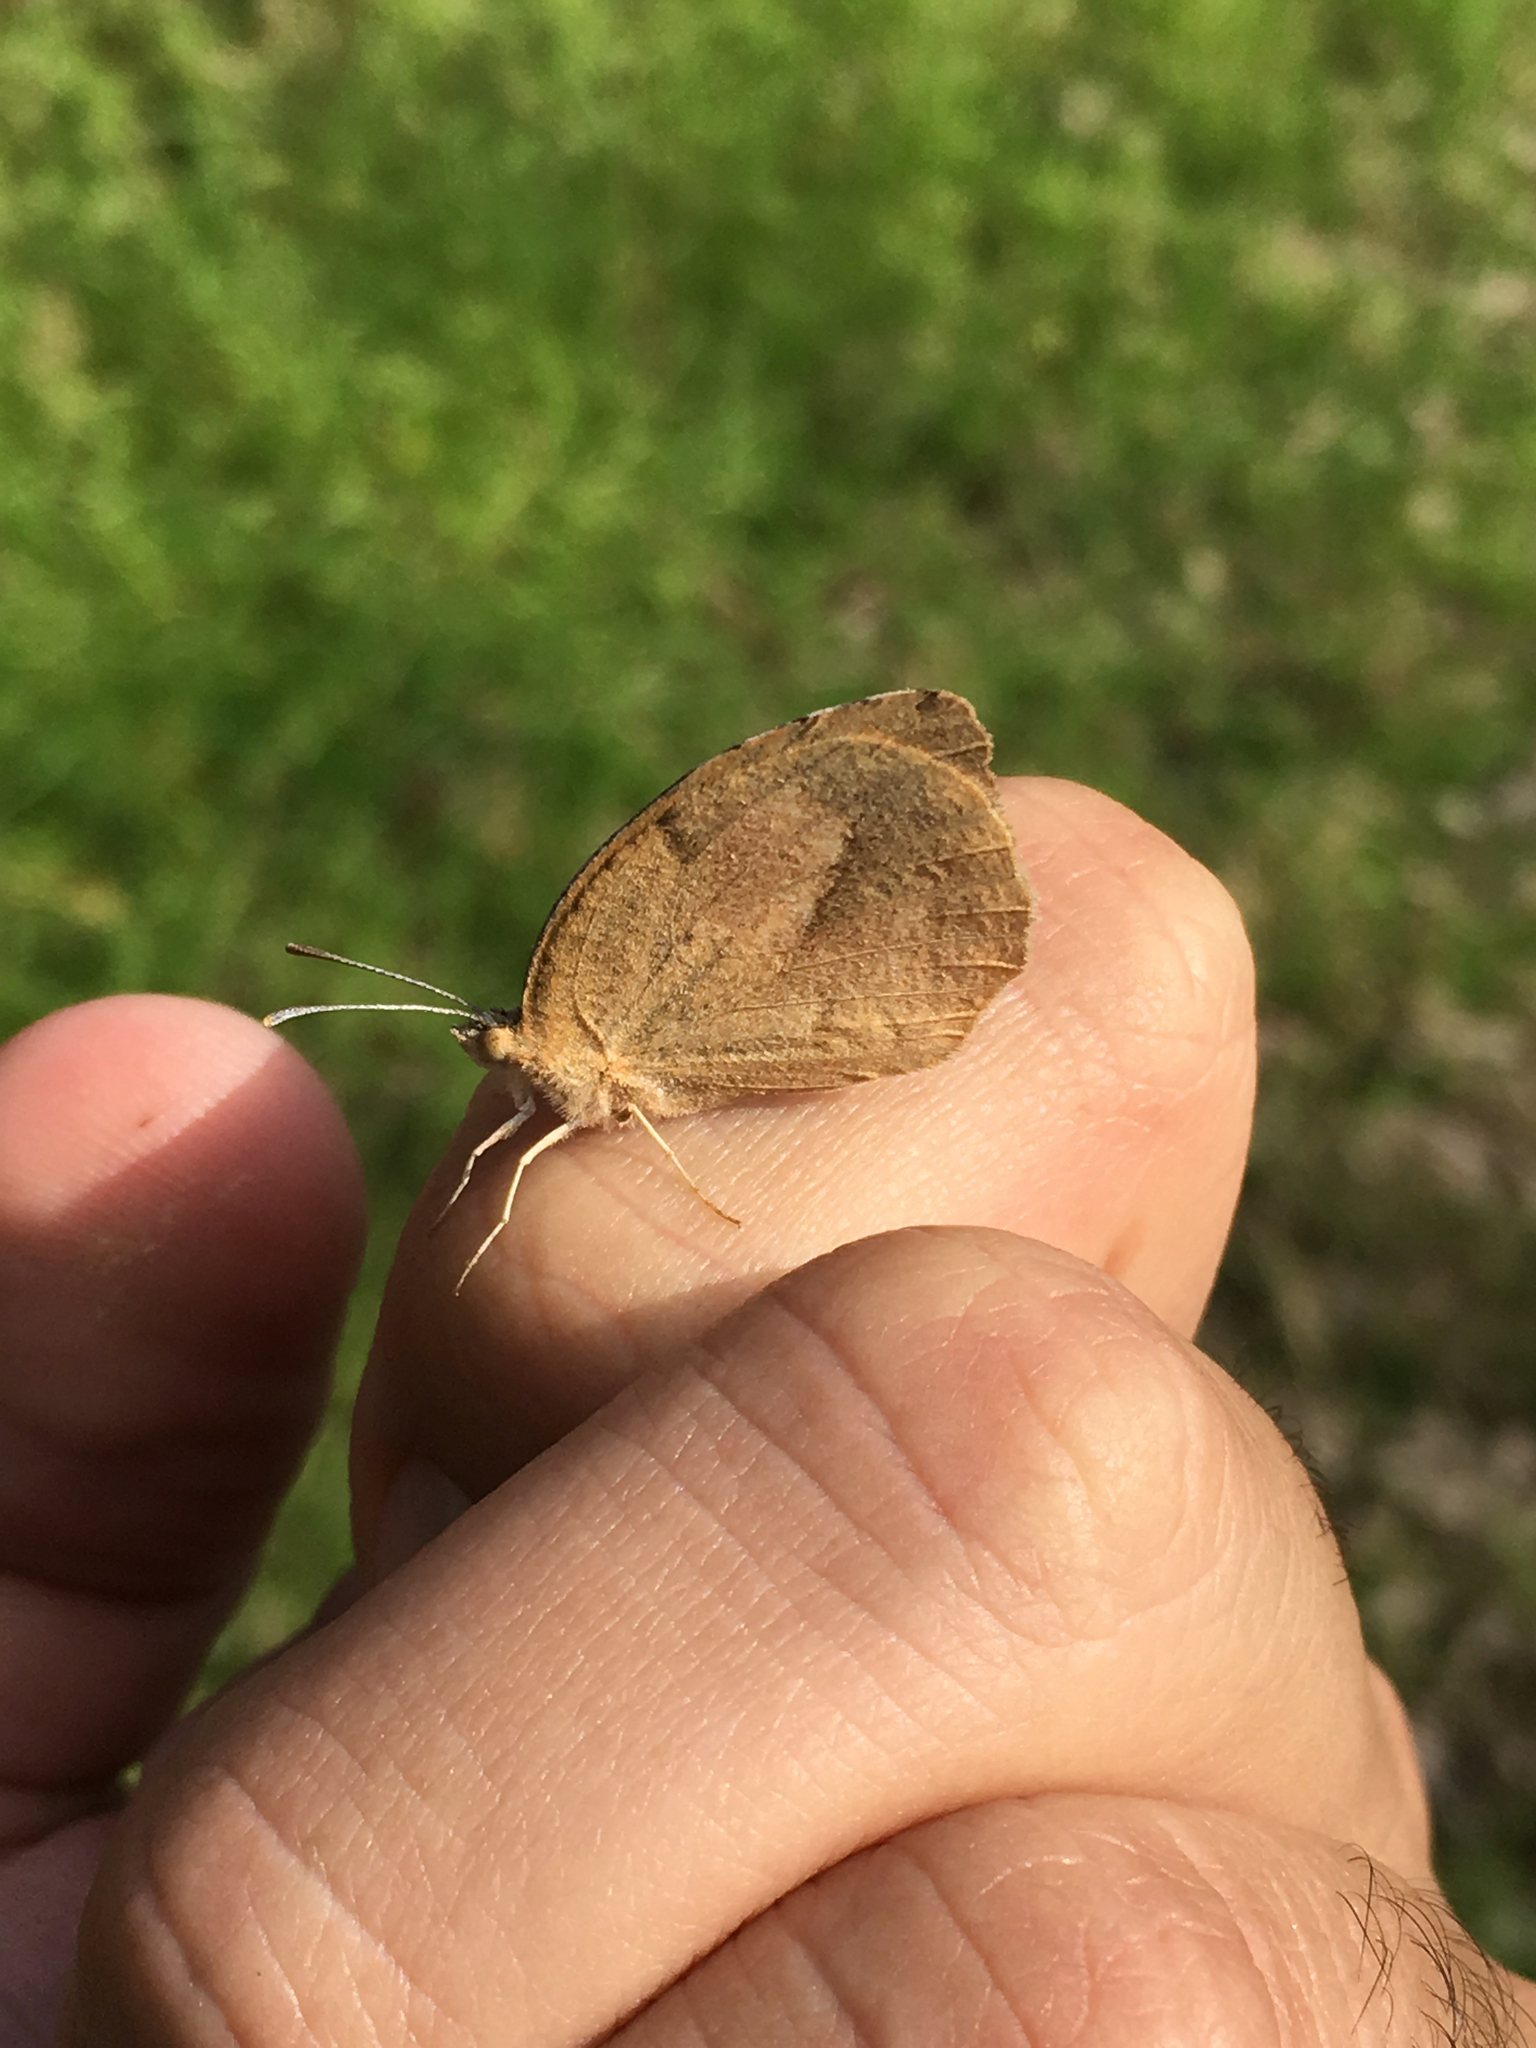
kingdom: Animalia
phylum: Arthropoda
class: Insecta
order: Lepidoptera
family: Pieridae
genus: Abaeis
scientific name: Abaeis nicippe
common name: Sleepy orange
